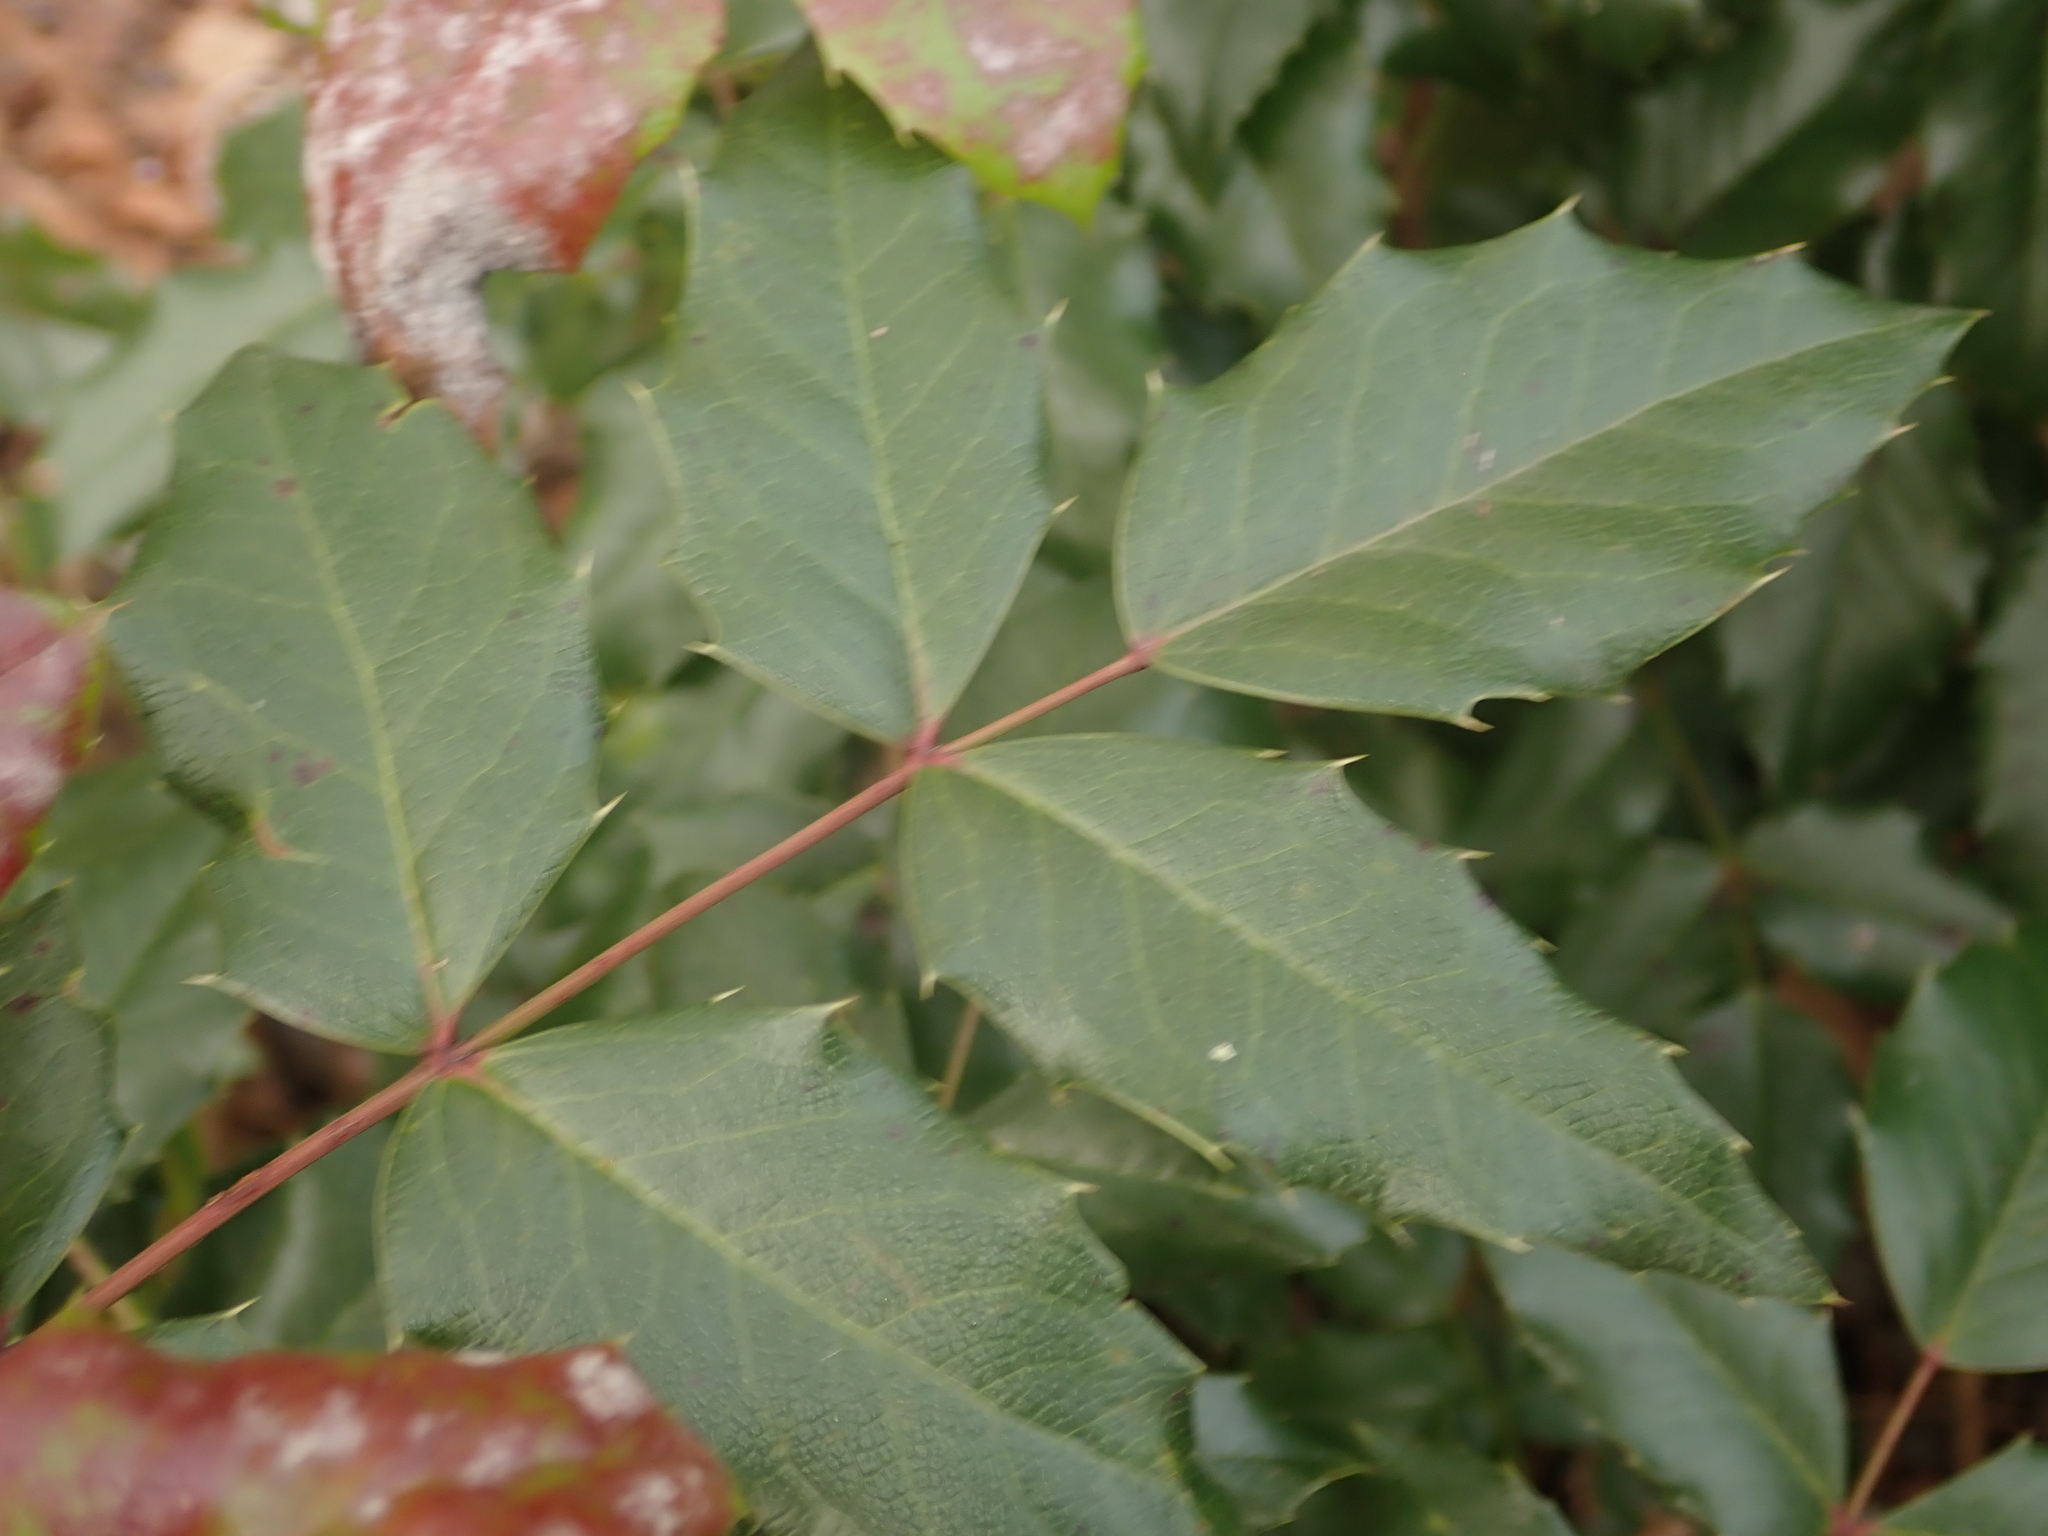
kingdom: Plantae
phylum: Tracheophyta
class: Magnoliopsida
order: Ranunculales
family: Berberidaceae
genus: Mahonia
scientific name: Mahonia aquifolium
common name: Oregon-grape
